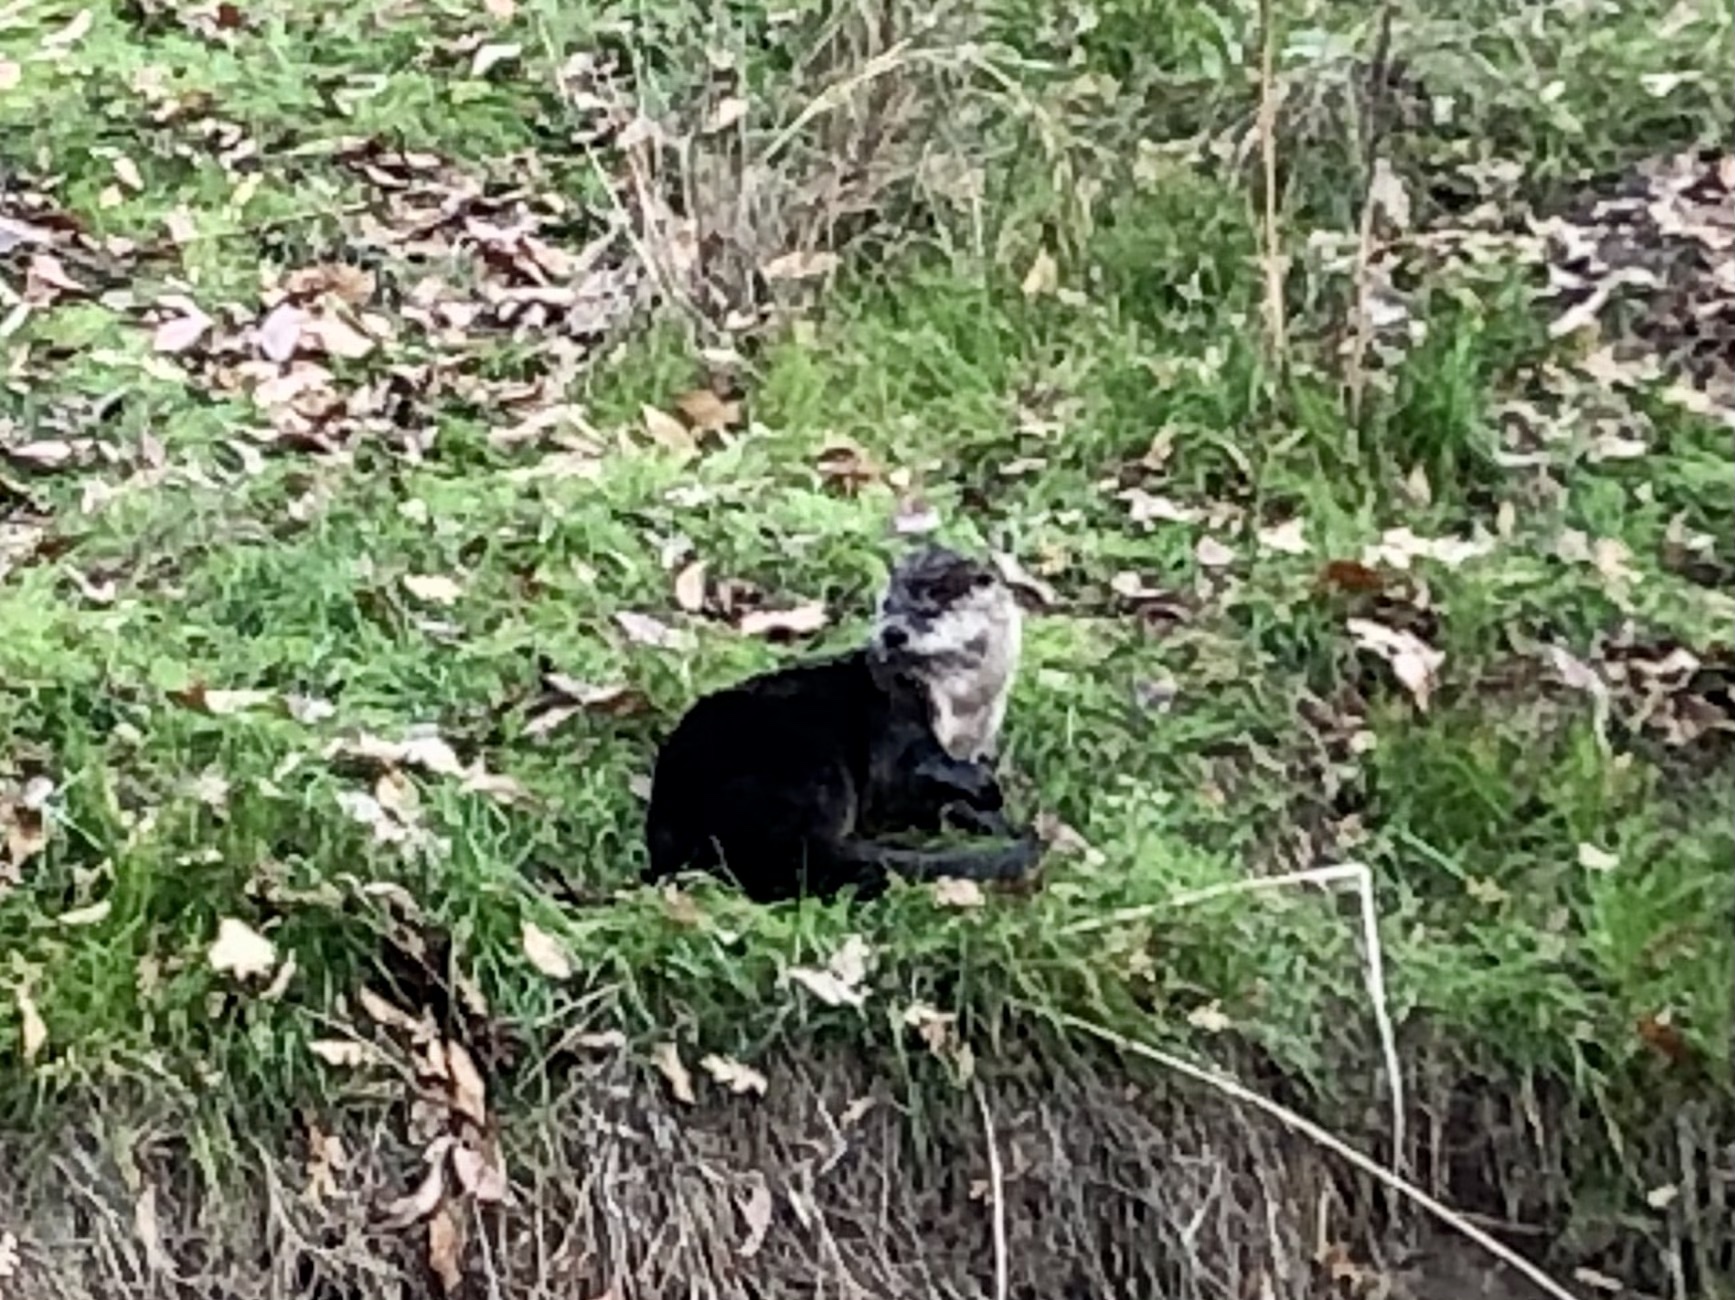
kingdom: Animalia
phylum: Chordata
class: Mammalia
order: Carnivora
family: Mustelidae
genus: Lontra
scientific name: Lontra canadensis
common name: North american river otter
